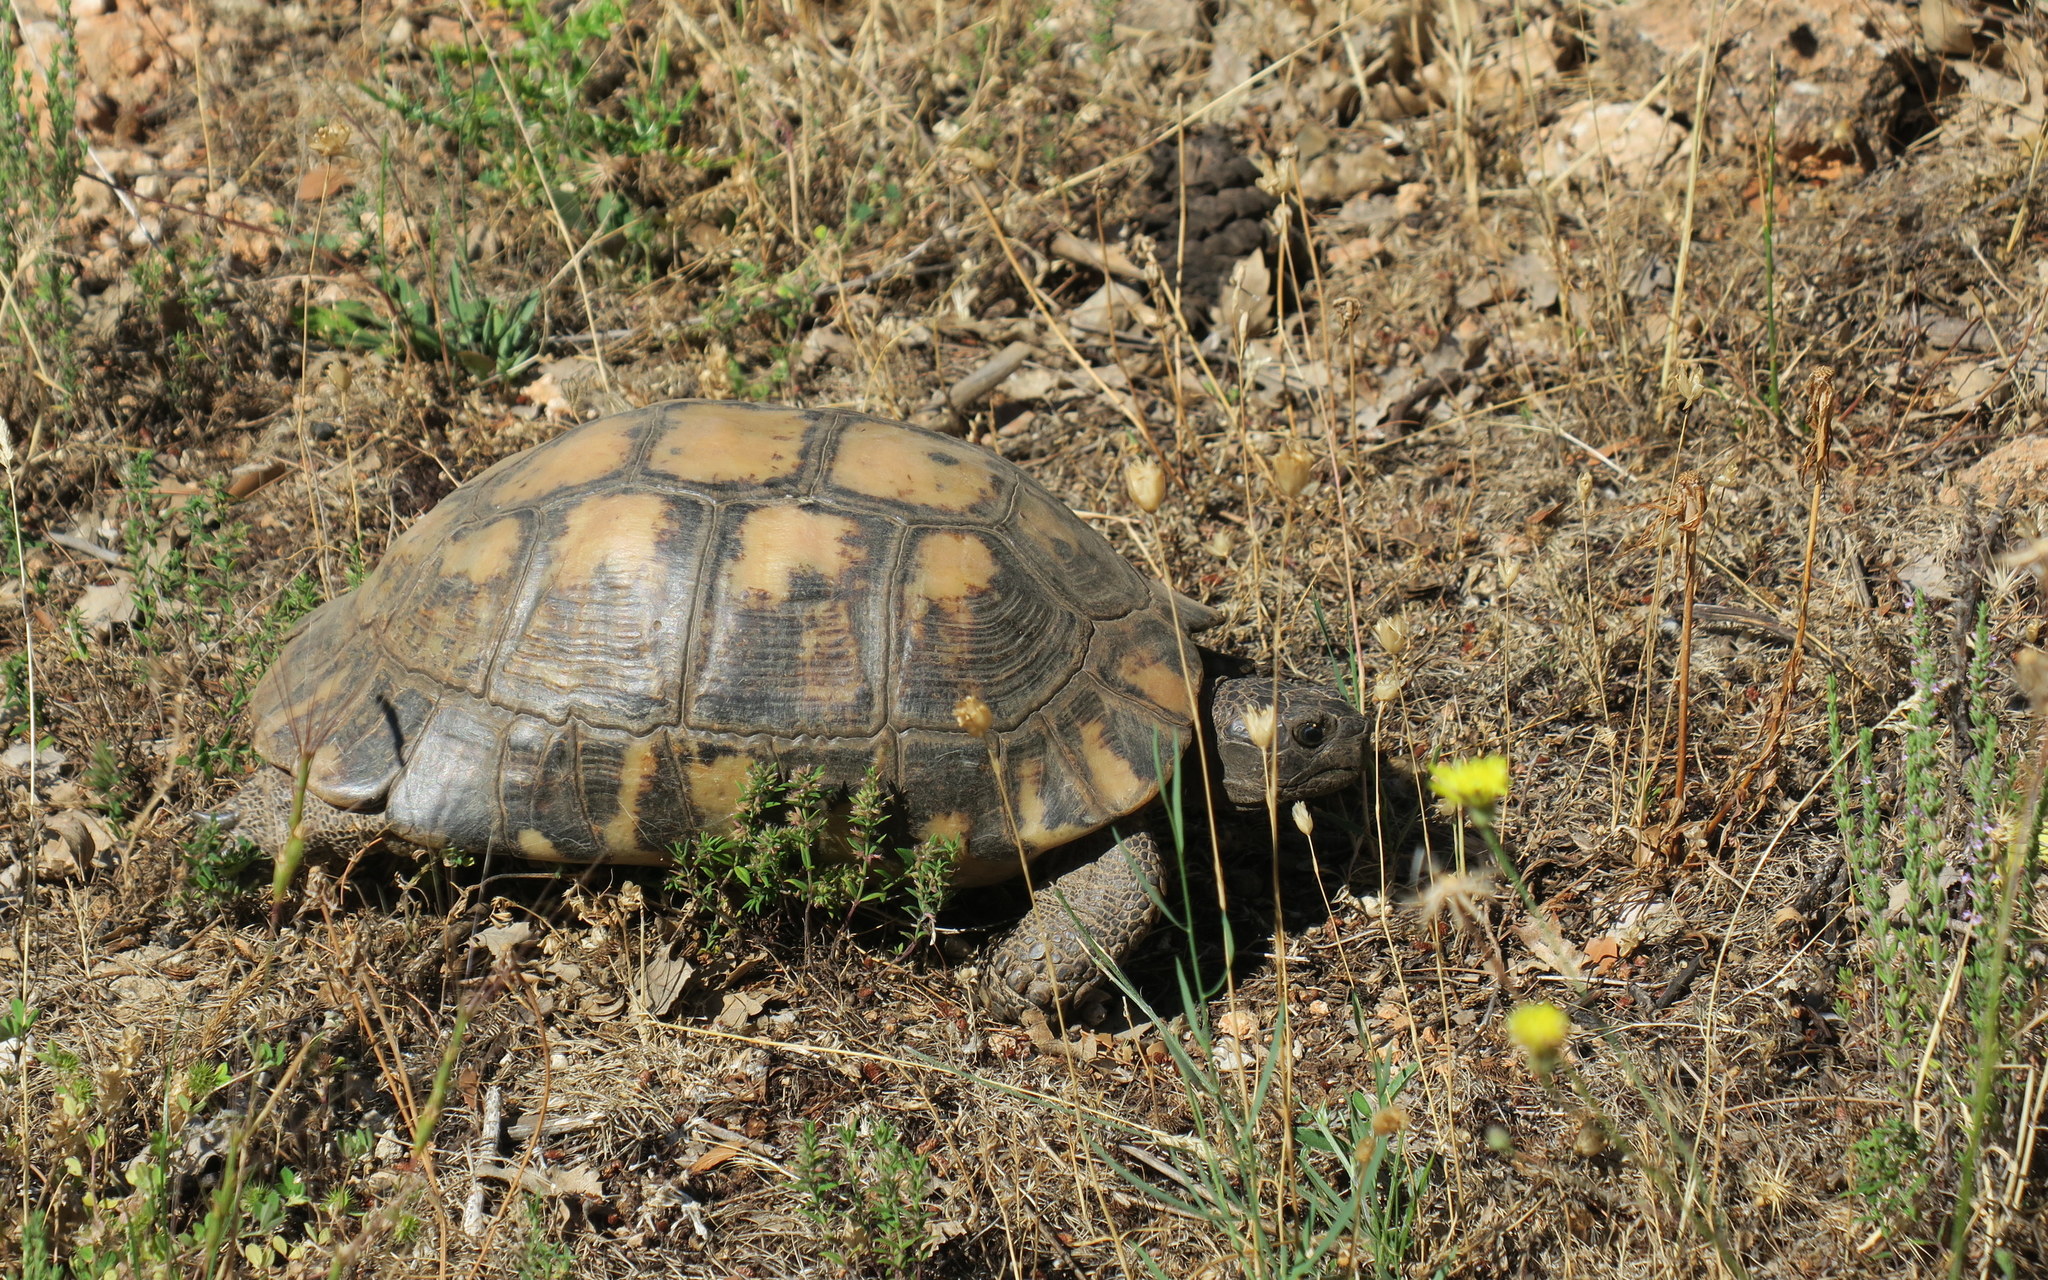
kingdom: Animalia
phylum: Chordata
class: Testudines
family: Testudinidae
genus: Testudo
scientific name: Testudo marginata
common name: Marginated tortoise
